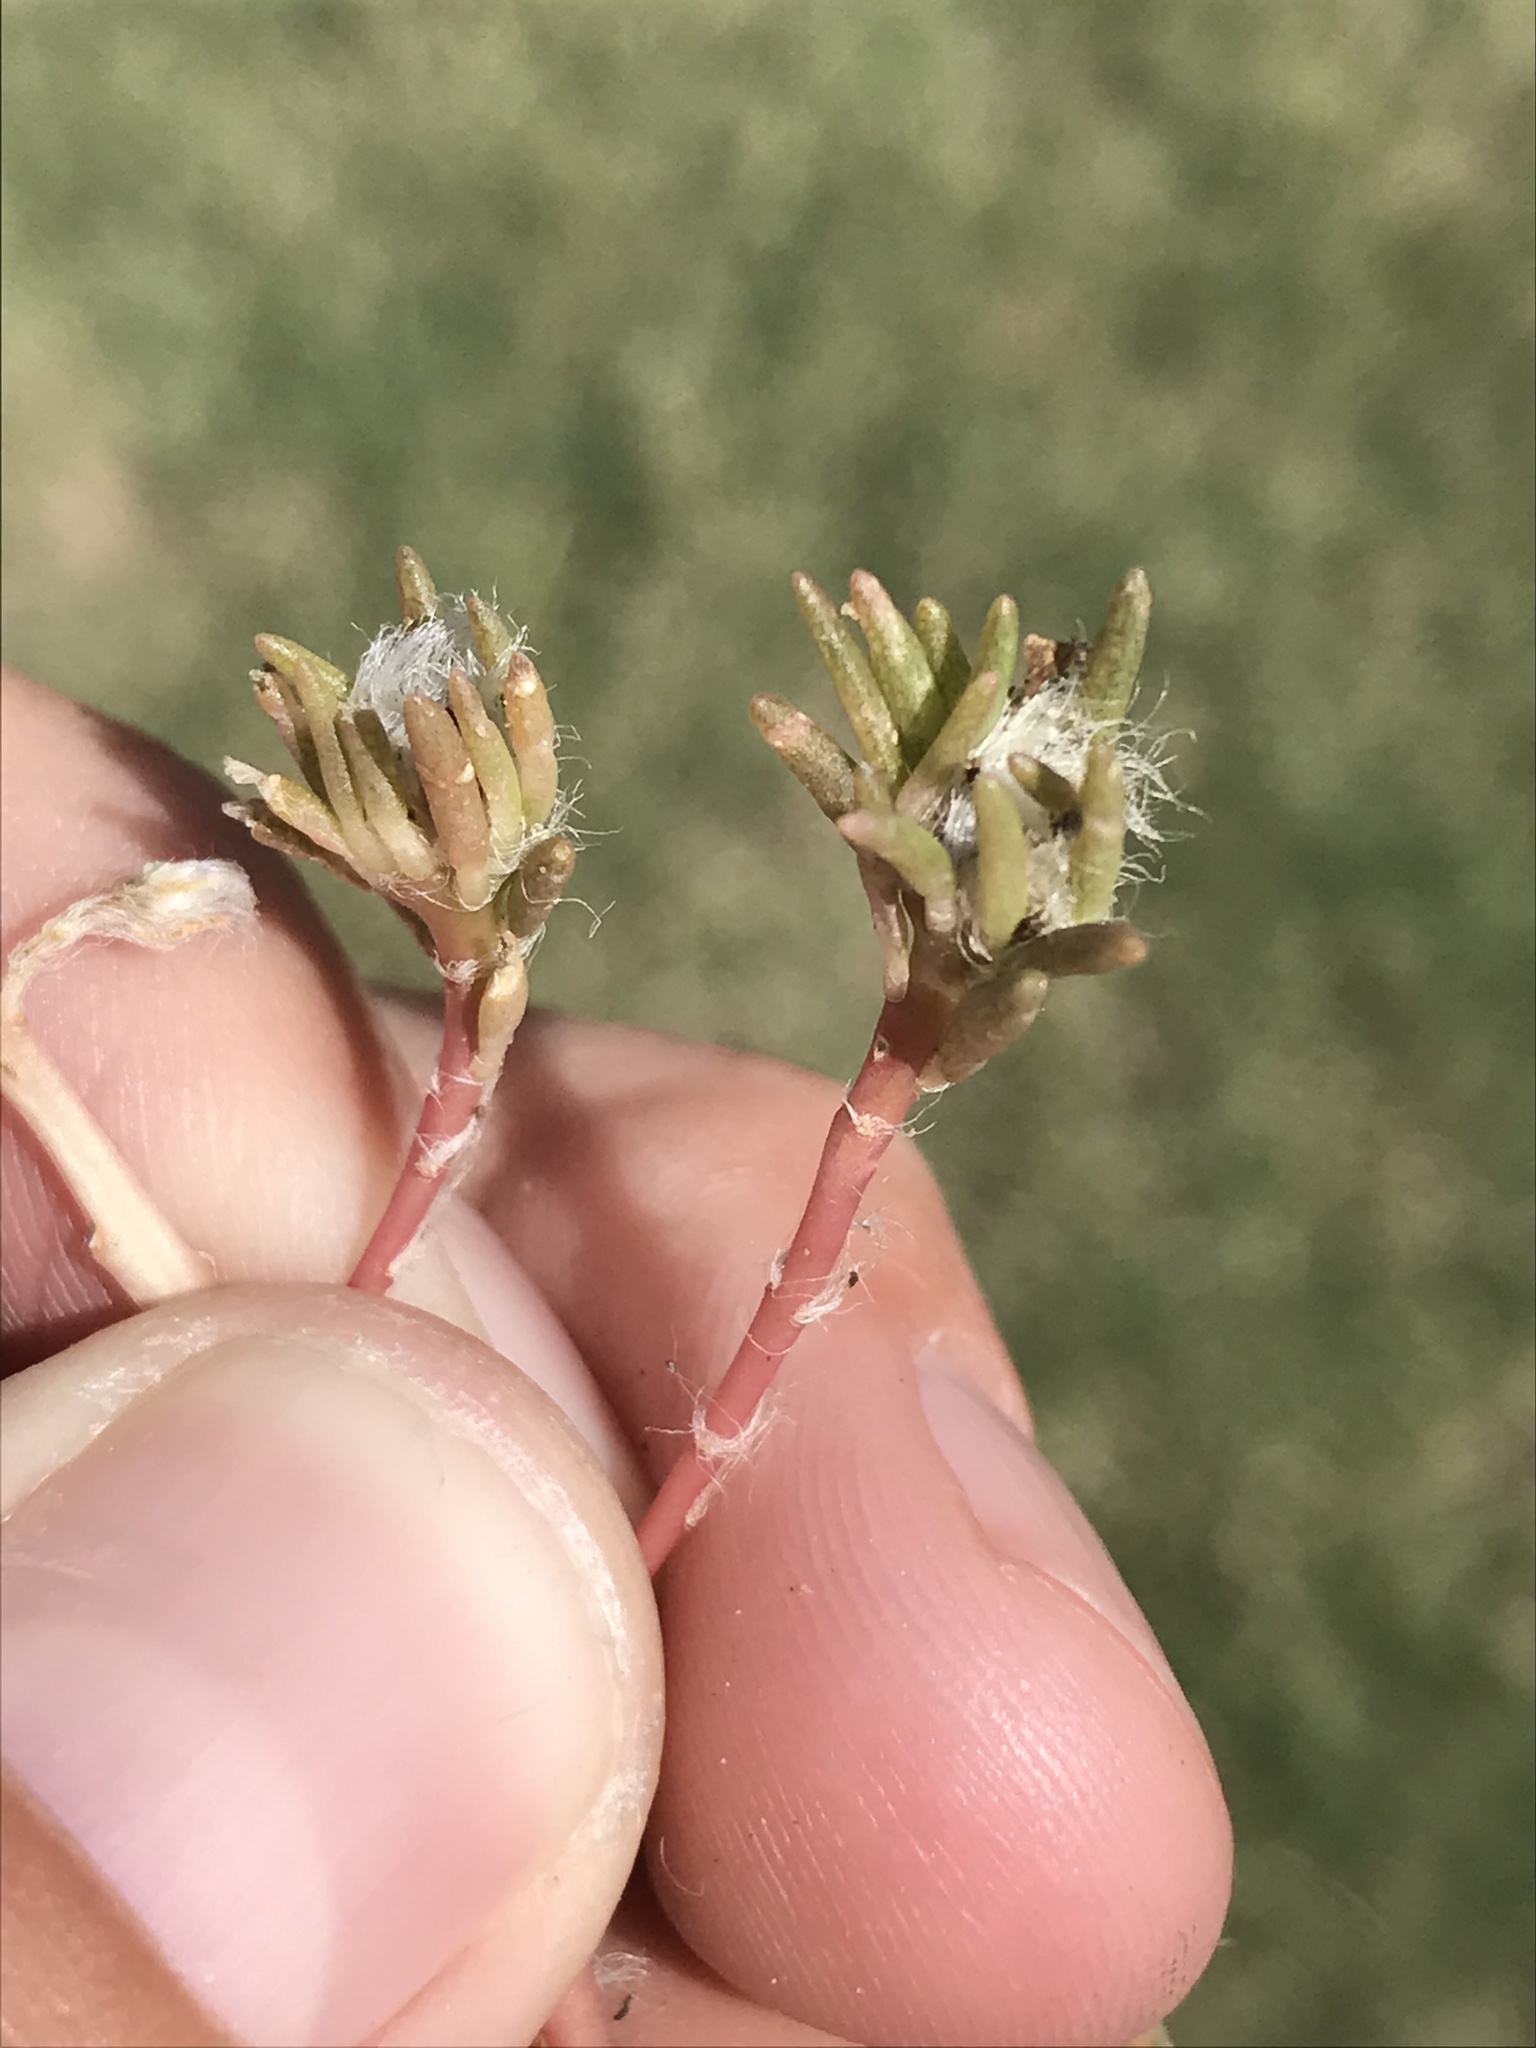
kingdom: Plantae
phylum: Tracheophyta
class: Magnoliopsida
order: Caryophyllales
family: Portulacaceae
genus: Portulaca
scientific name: Portulaca pilosa
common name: Kiss me quick
